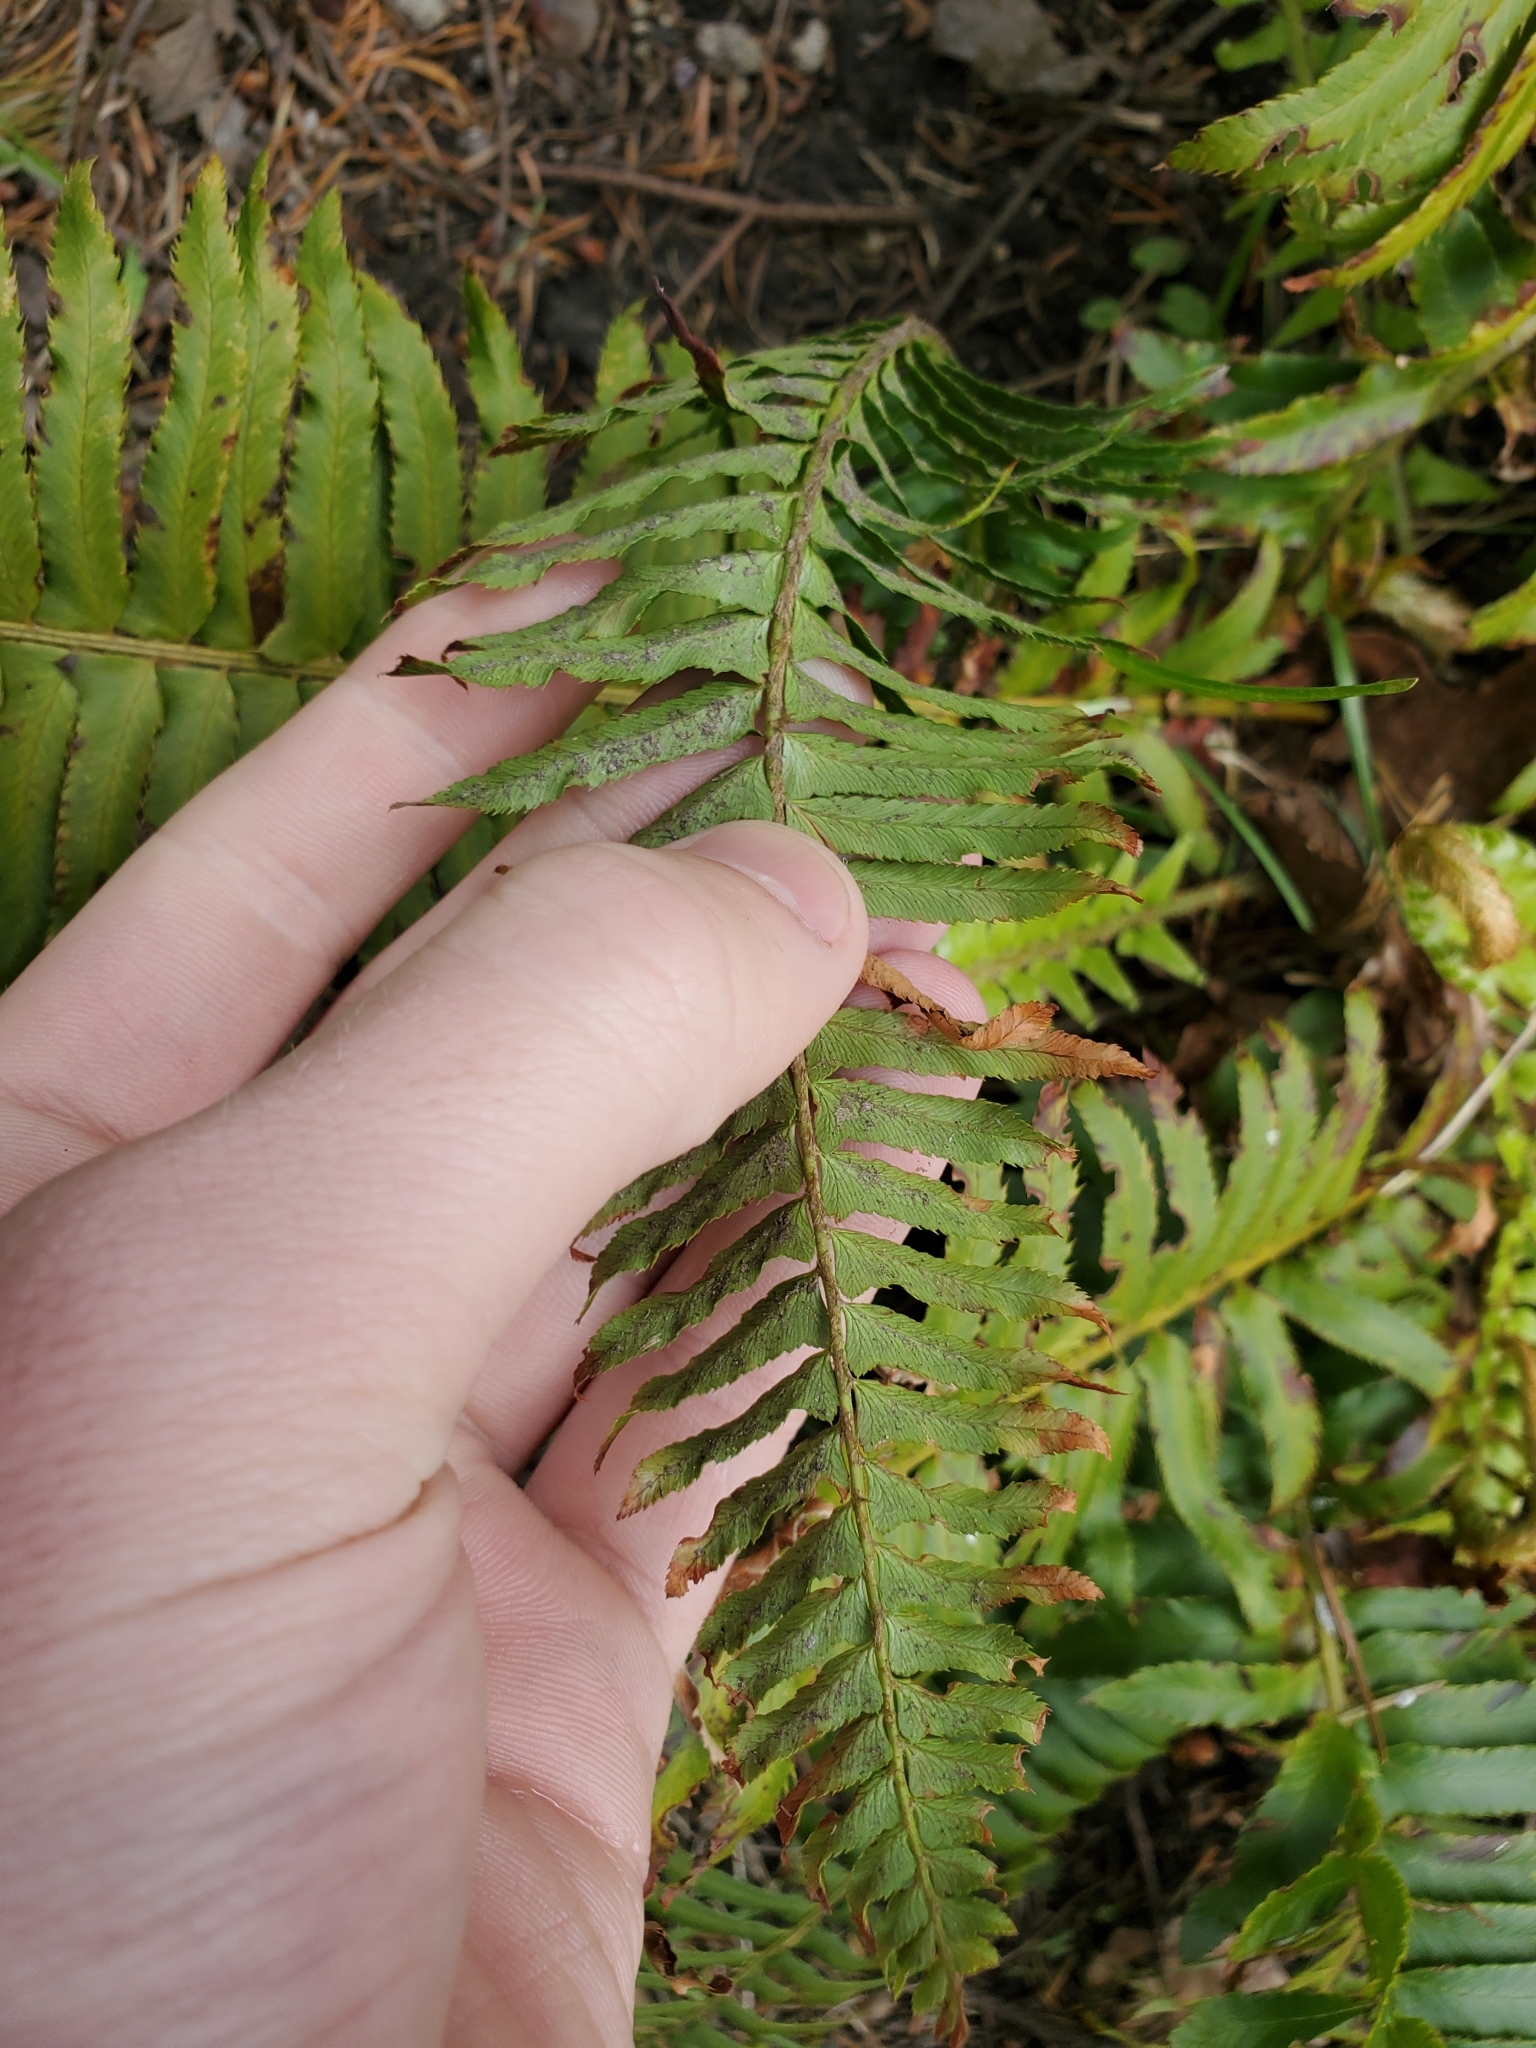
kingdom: Plantae
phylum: Tracheophyta
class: Polypodiopsida
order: Polypodiales
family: Dryopteridaceae
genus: Polystichum
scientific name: Polystichum munitum
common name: Western sword-fern
